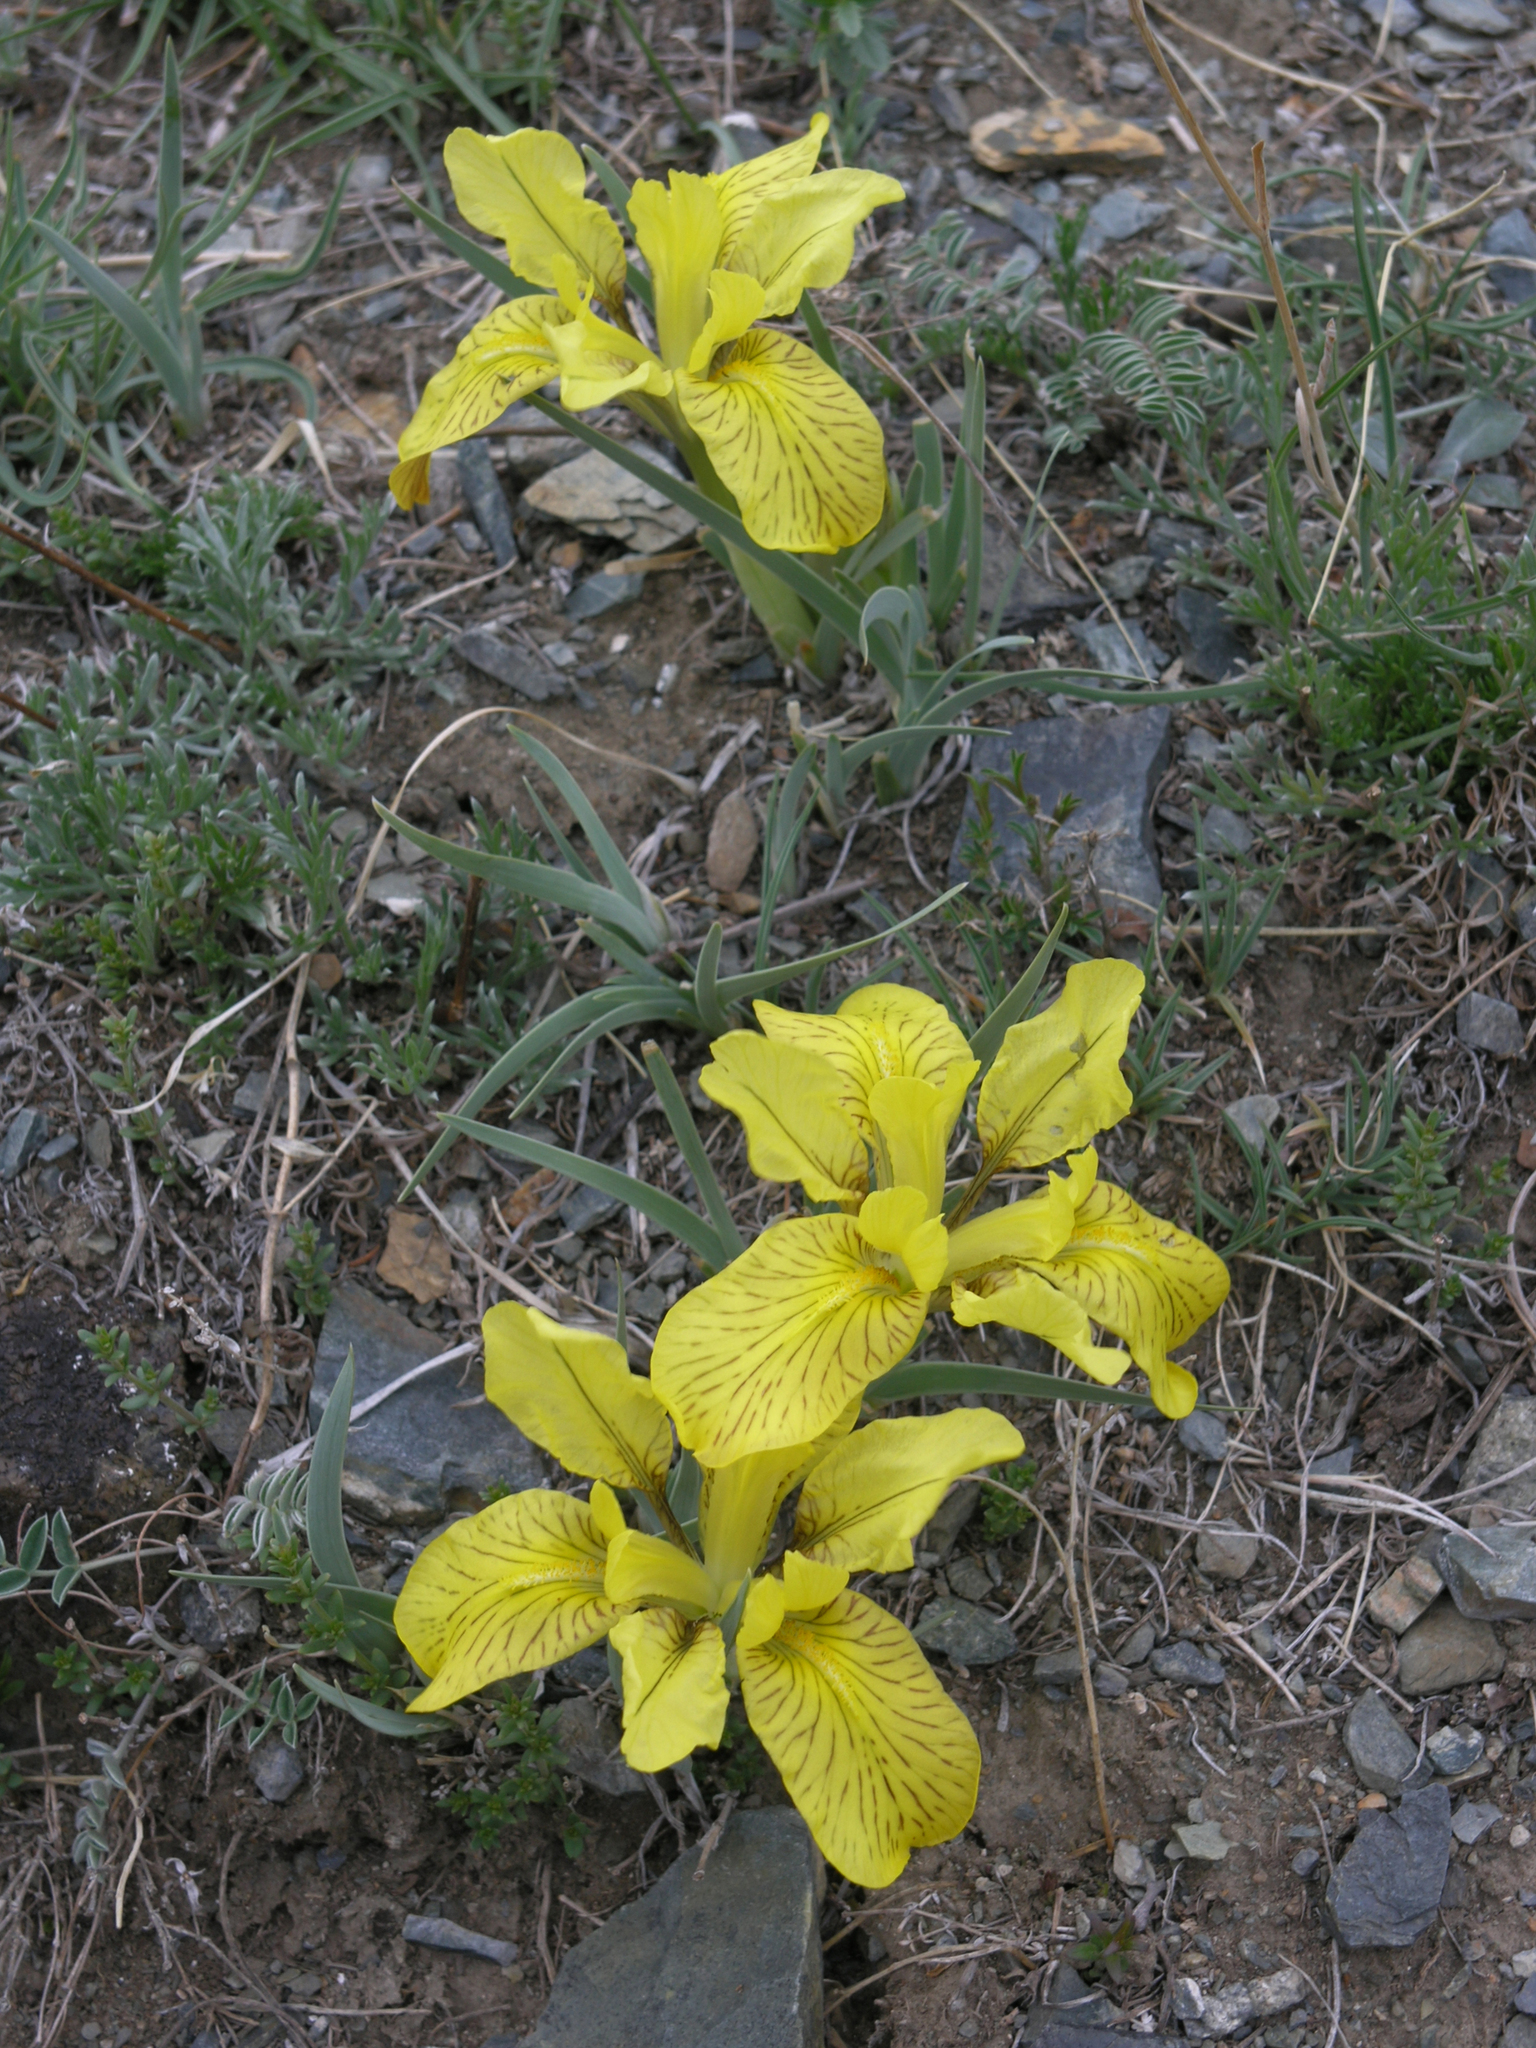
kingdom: Plantae
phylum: Tracheophyta
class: Liliopsida
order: Asparagales
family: Iridaceae
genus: Iris
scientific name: Iris potaninii
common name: Curl-sheath iris
